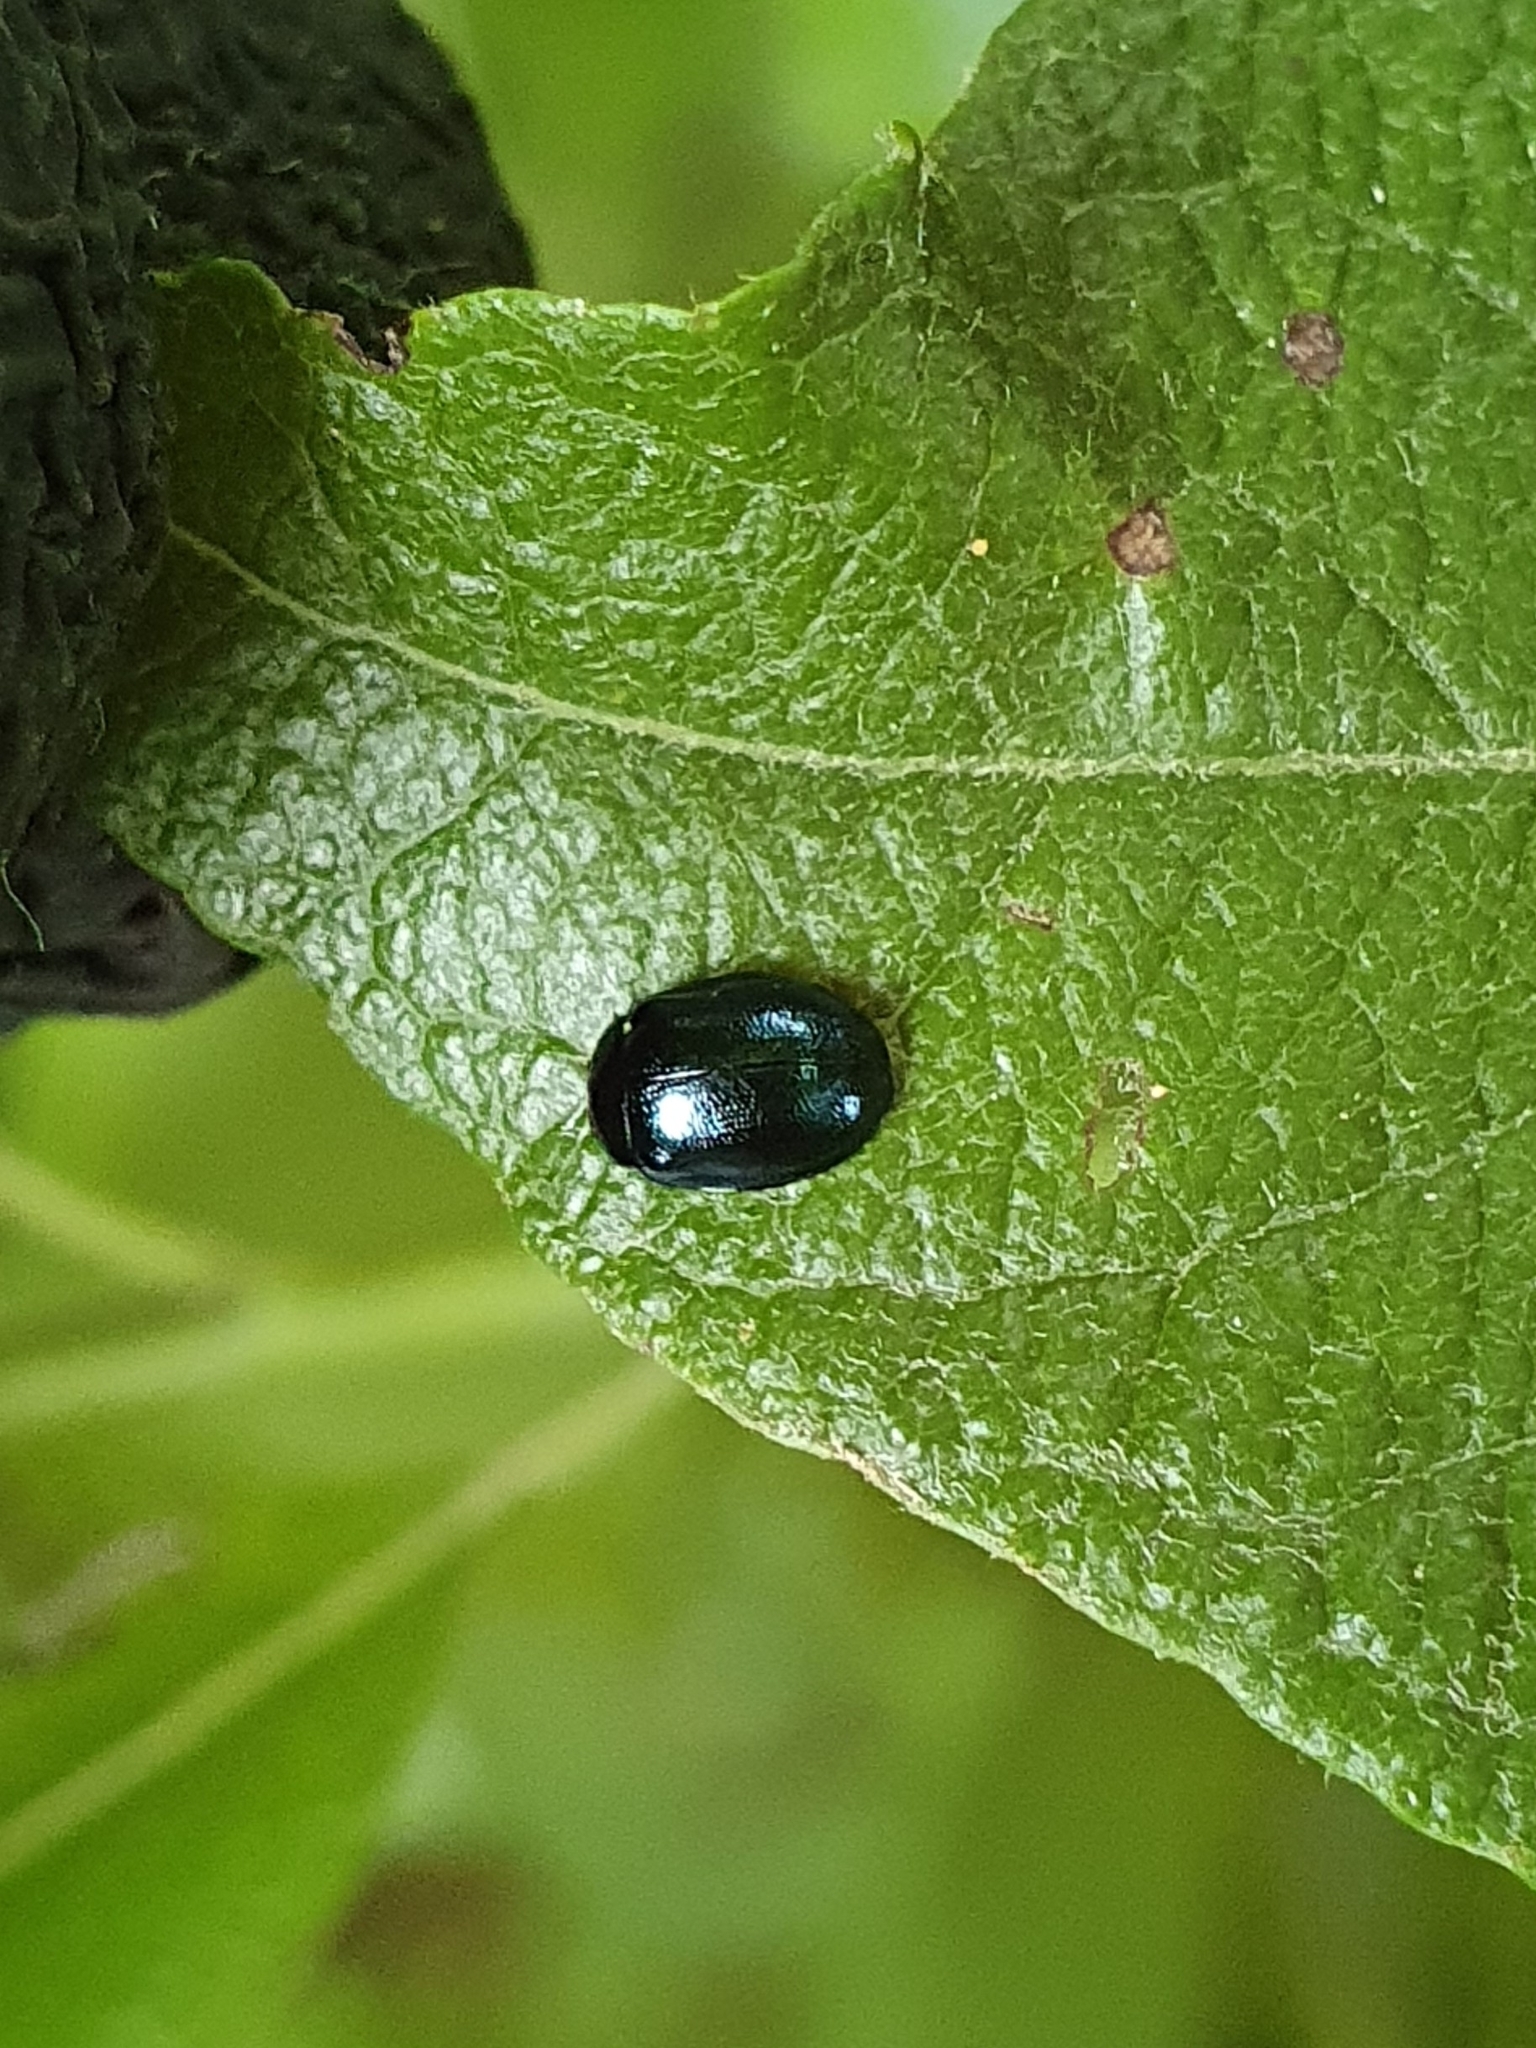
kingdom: Animalia
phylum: Arthropoda
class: Insecta
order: Coleoptera
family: Chrysomelidae
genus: Plagiodera
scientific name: Plagiodera versicolora
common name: Imported willow leaf beetle
